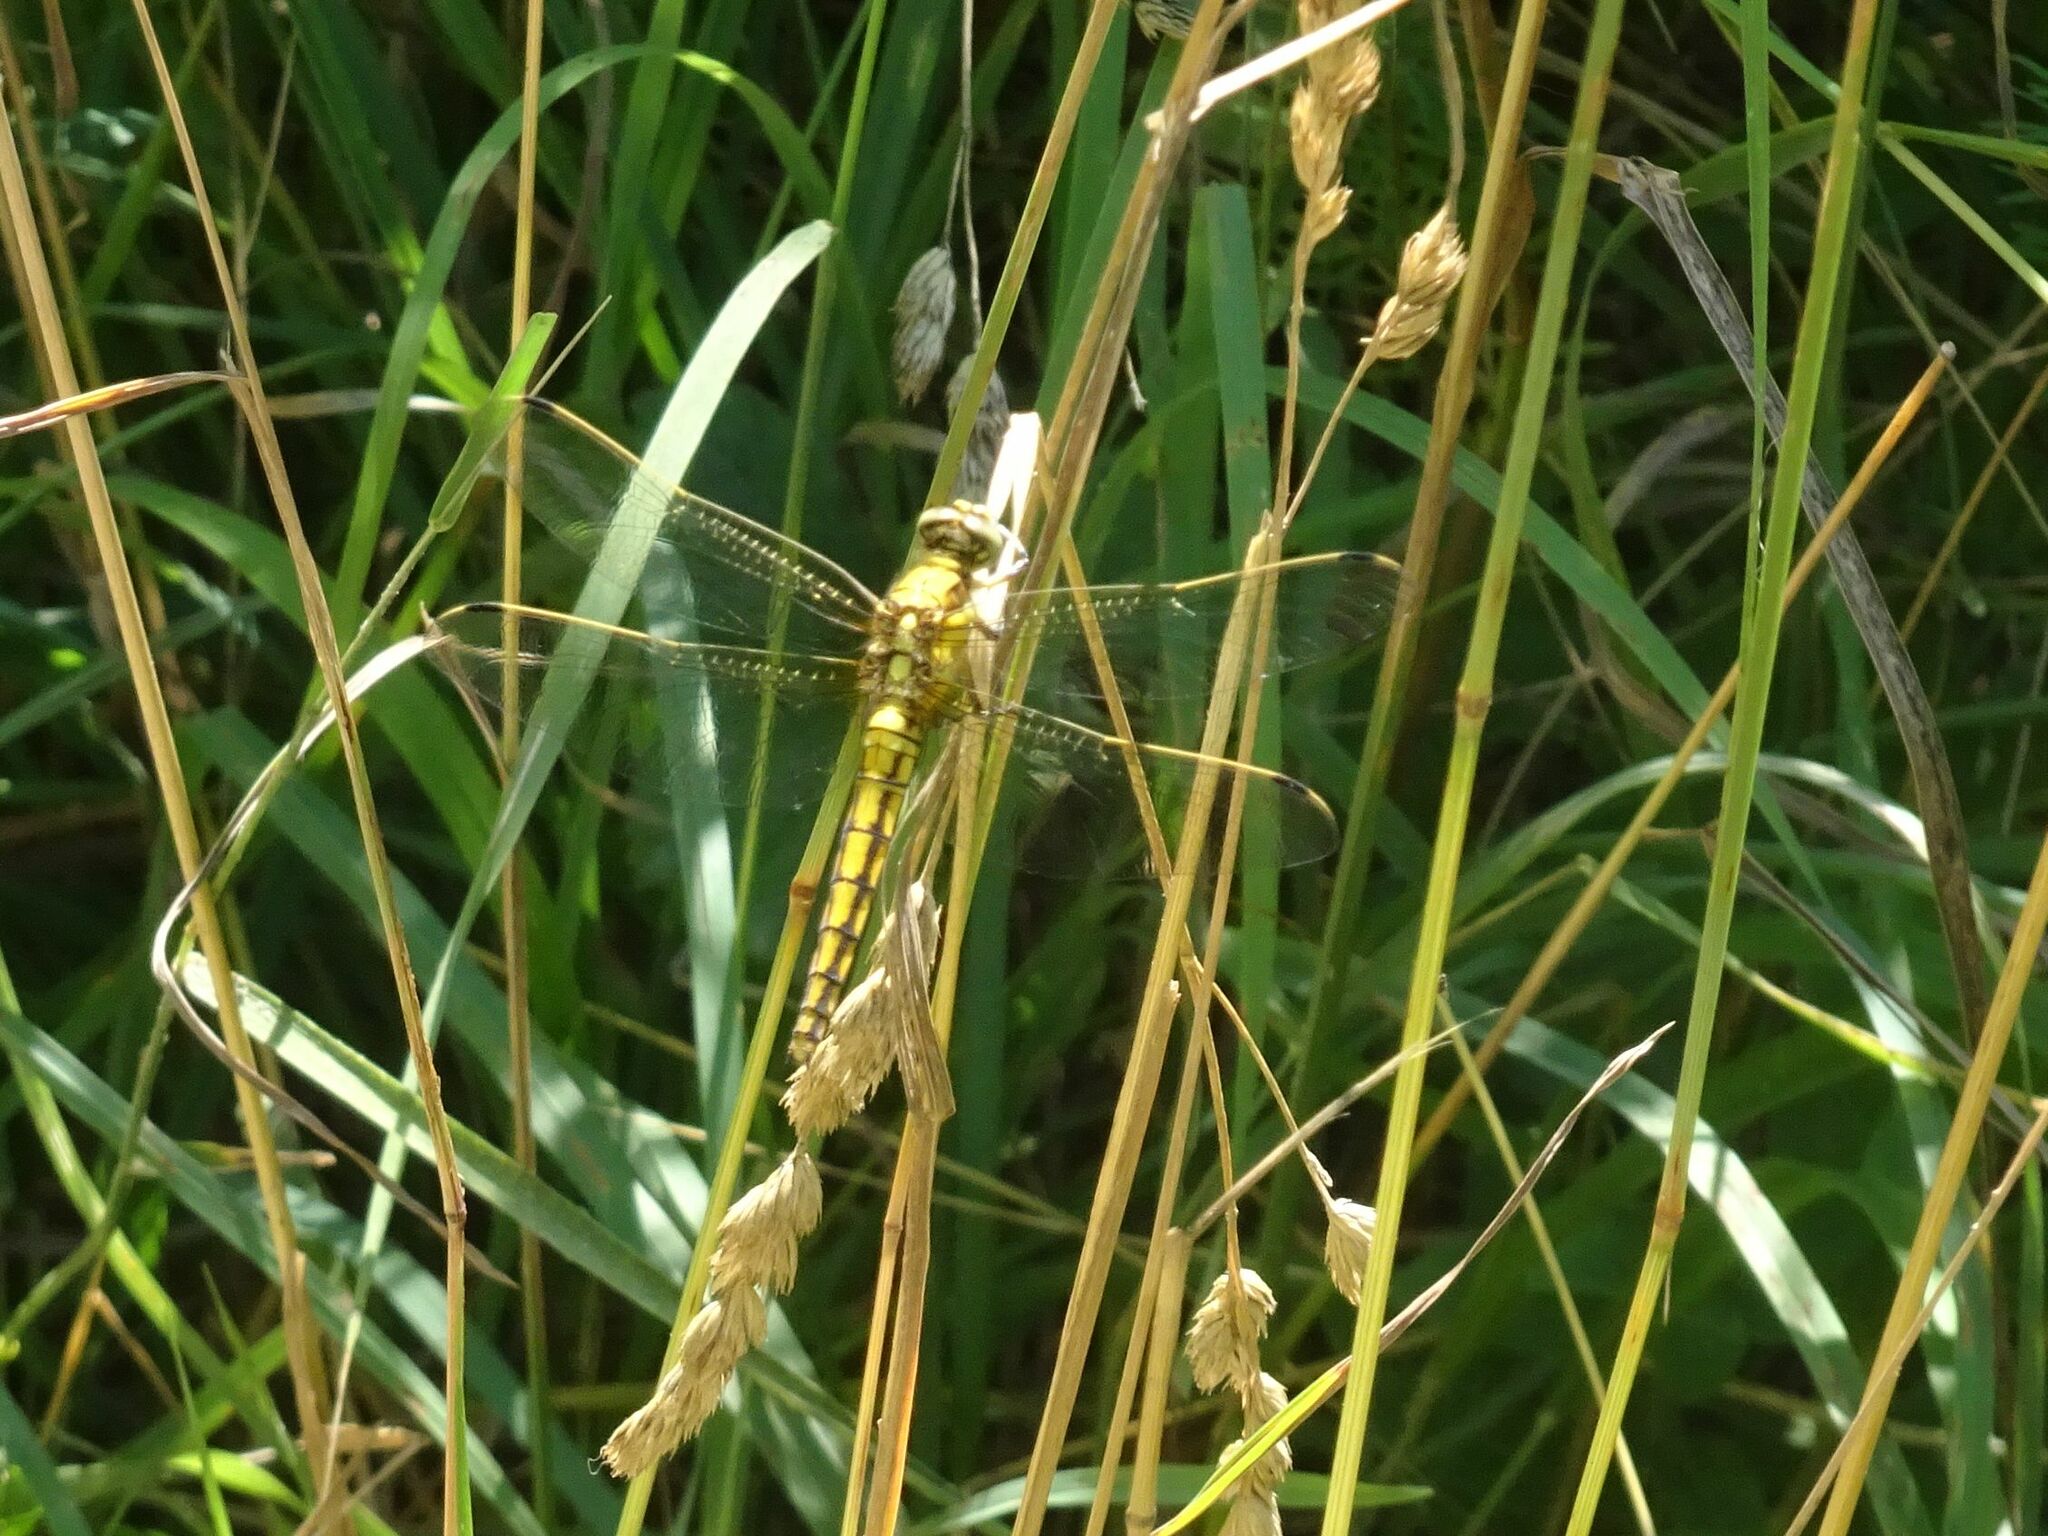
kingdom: Animalia
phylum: Arthropoda
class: Insecta
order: Odonata
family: Libellulidae
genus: Orthetrum
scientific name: Orthetrum cancellatum
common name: Black-tailed skimmer
